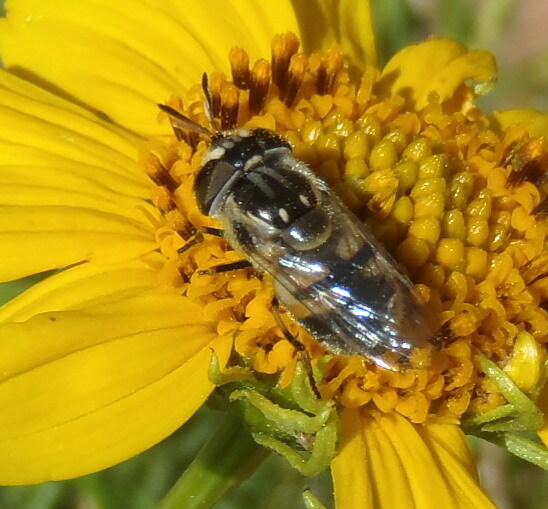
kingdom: Animalia
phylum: Arthropoda
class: Insecta
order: Diptera
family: Syrphidae
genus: Copestylum
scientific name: Copestylum marginatum
